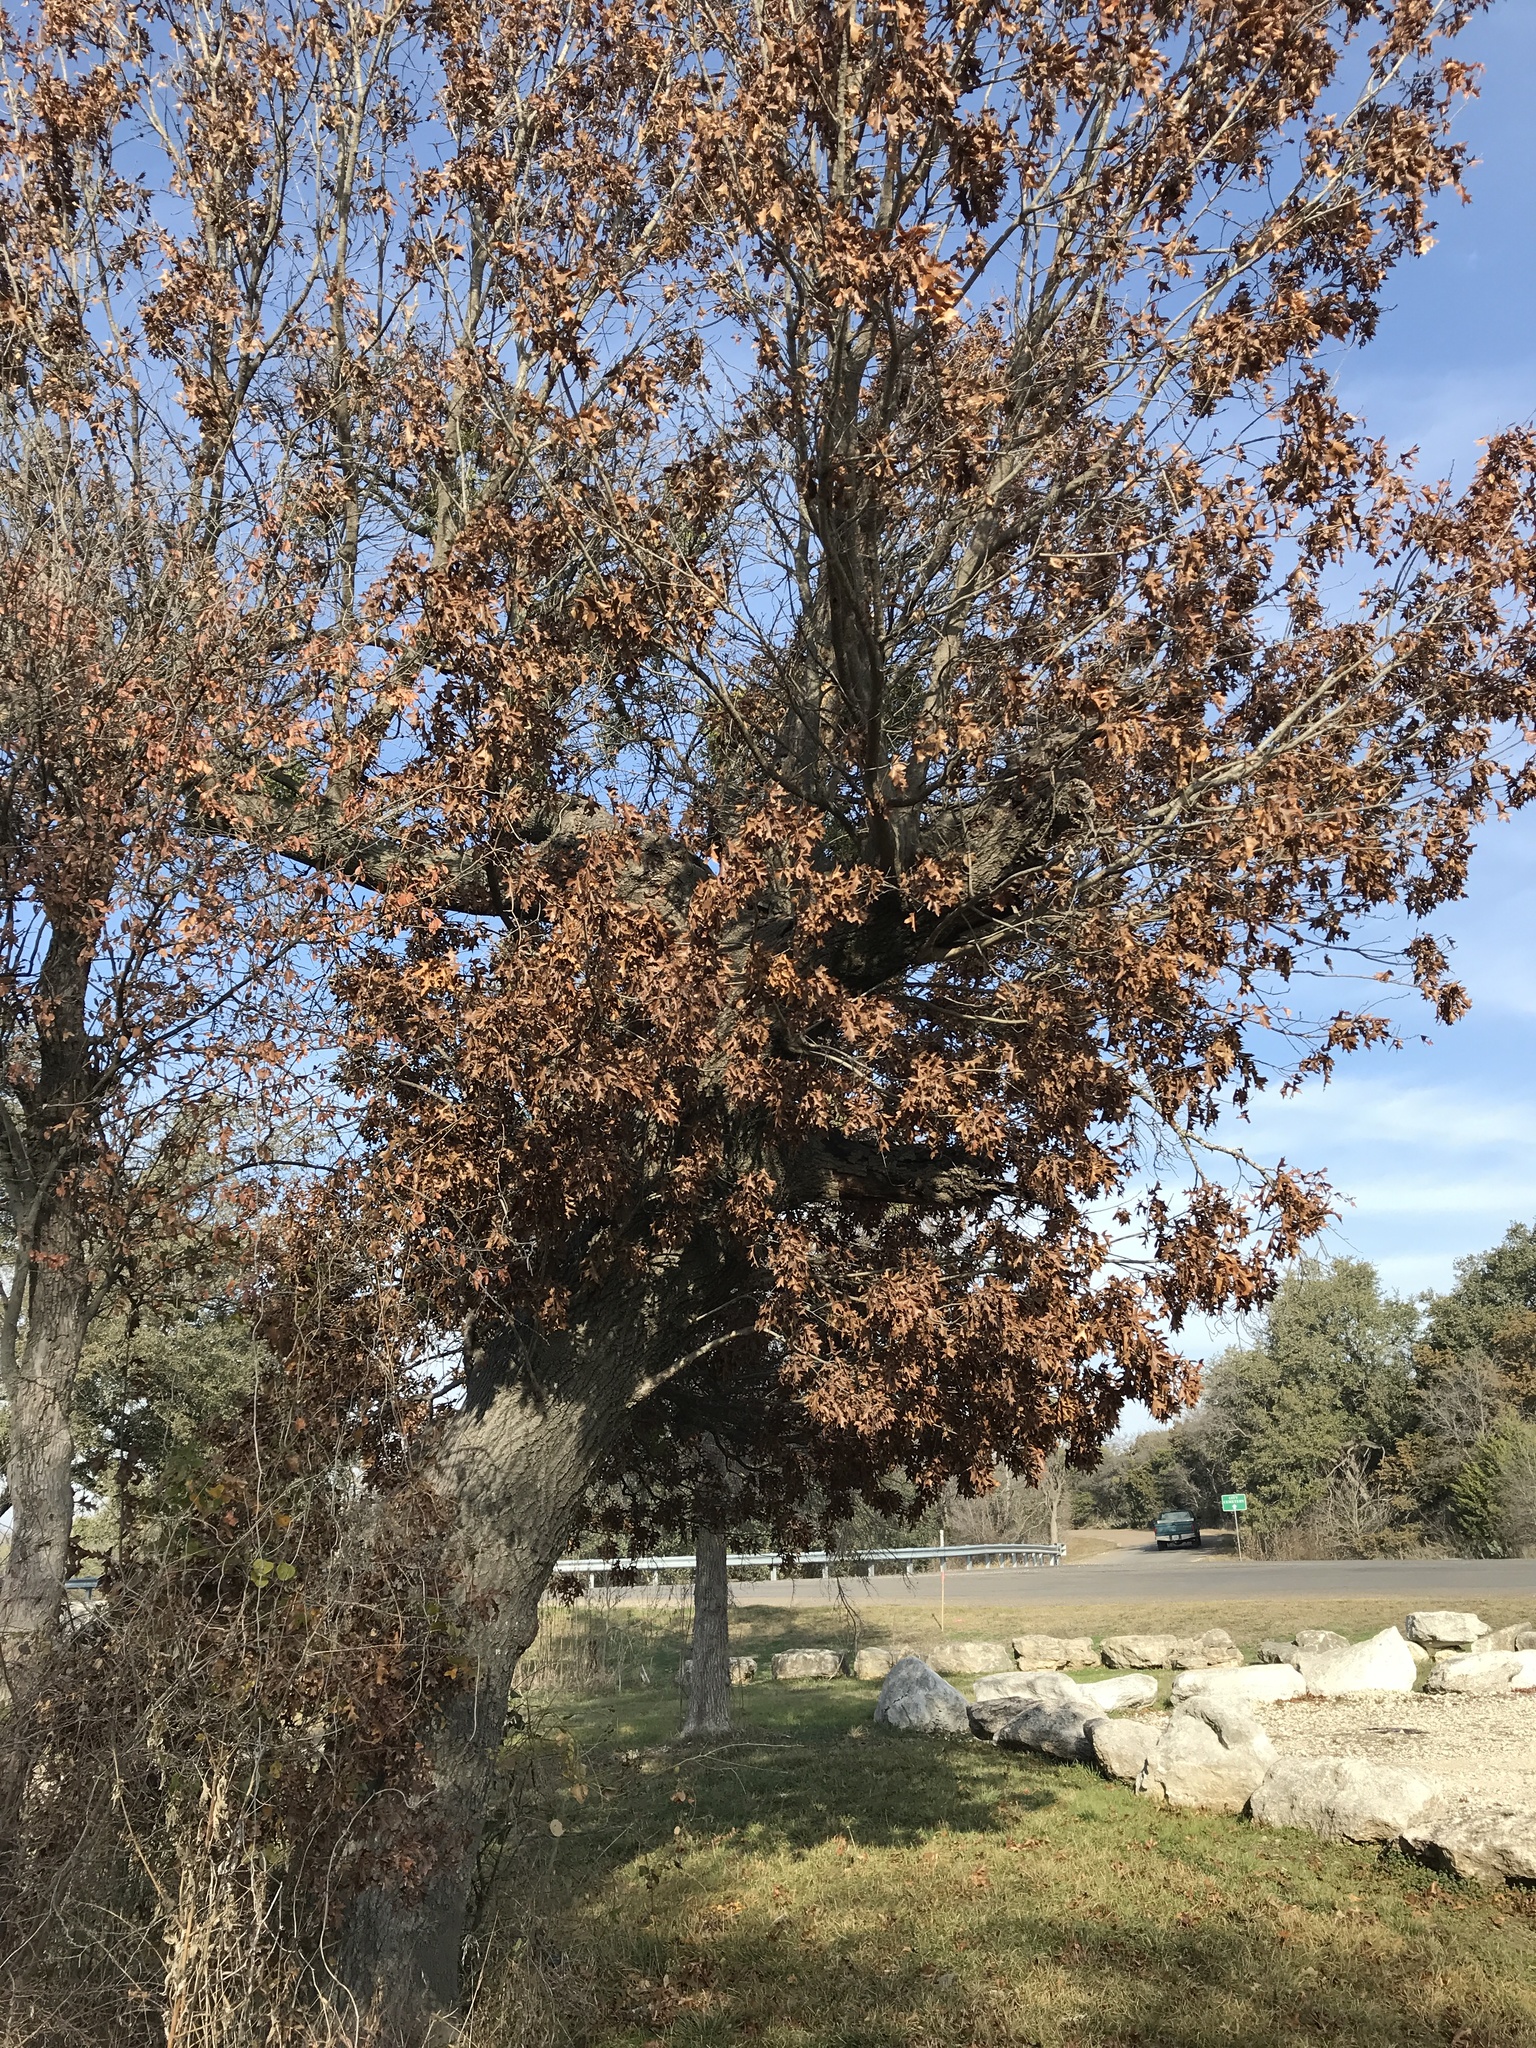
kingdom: Plantae
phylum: Tracheophyta
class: Magnoliopsida
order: Fagales
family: Fagaceae
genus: Quercus
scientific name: Quercus buckleyi
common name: Buckley oak
